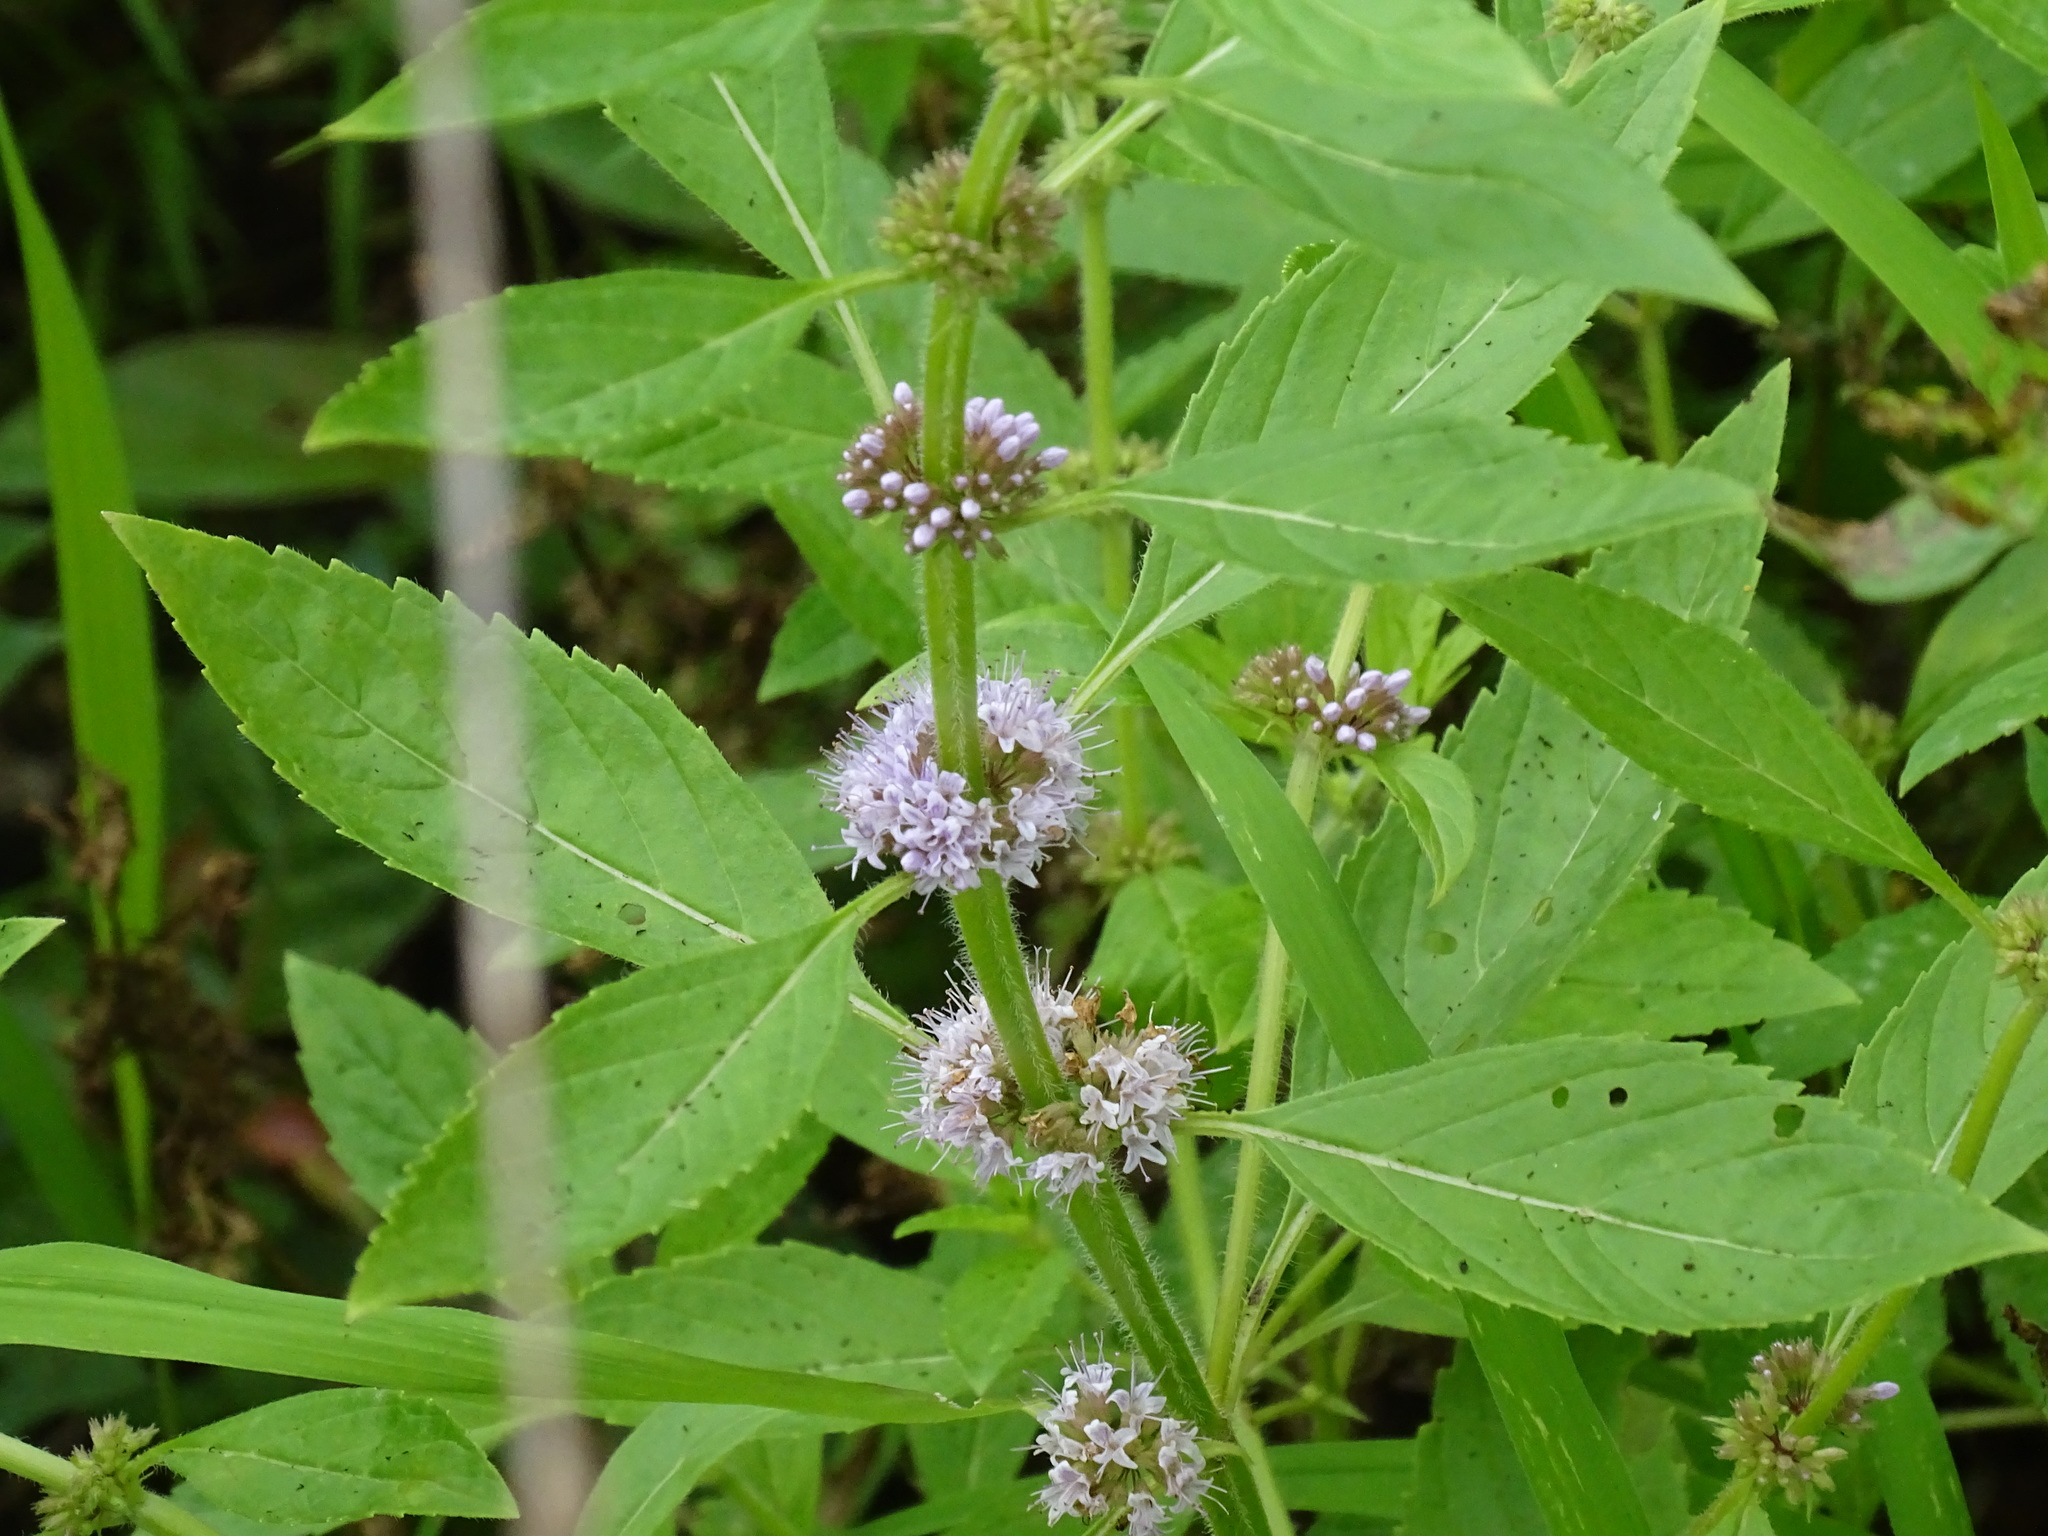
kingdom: Plantae
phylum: Tracheophyta
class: Magnoliopsida
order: Lamiales
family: Lamiaceae
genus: Mentha
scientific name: Mentha canadensis
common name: American corn mint
